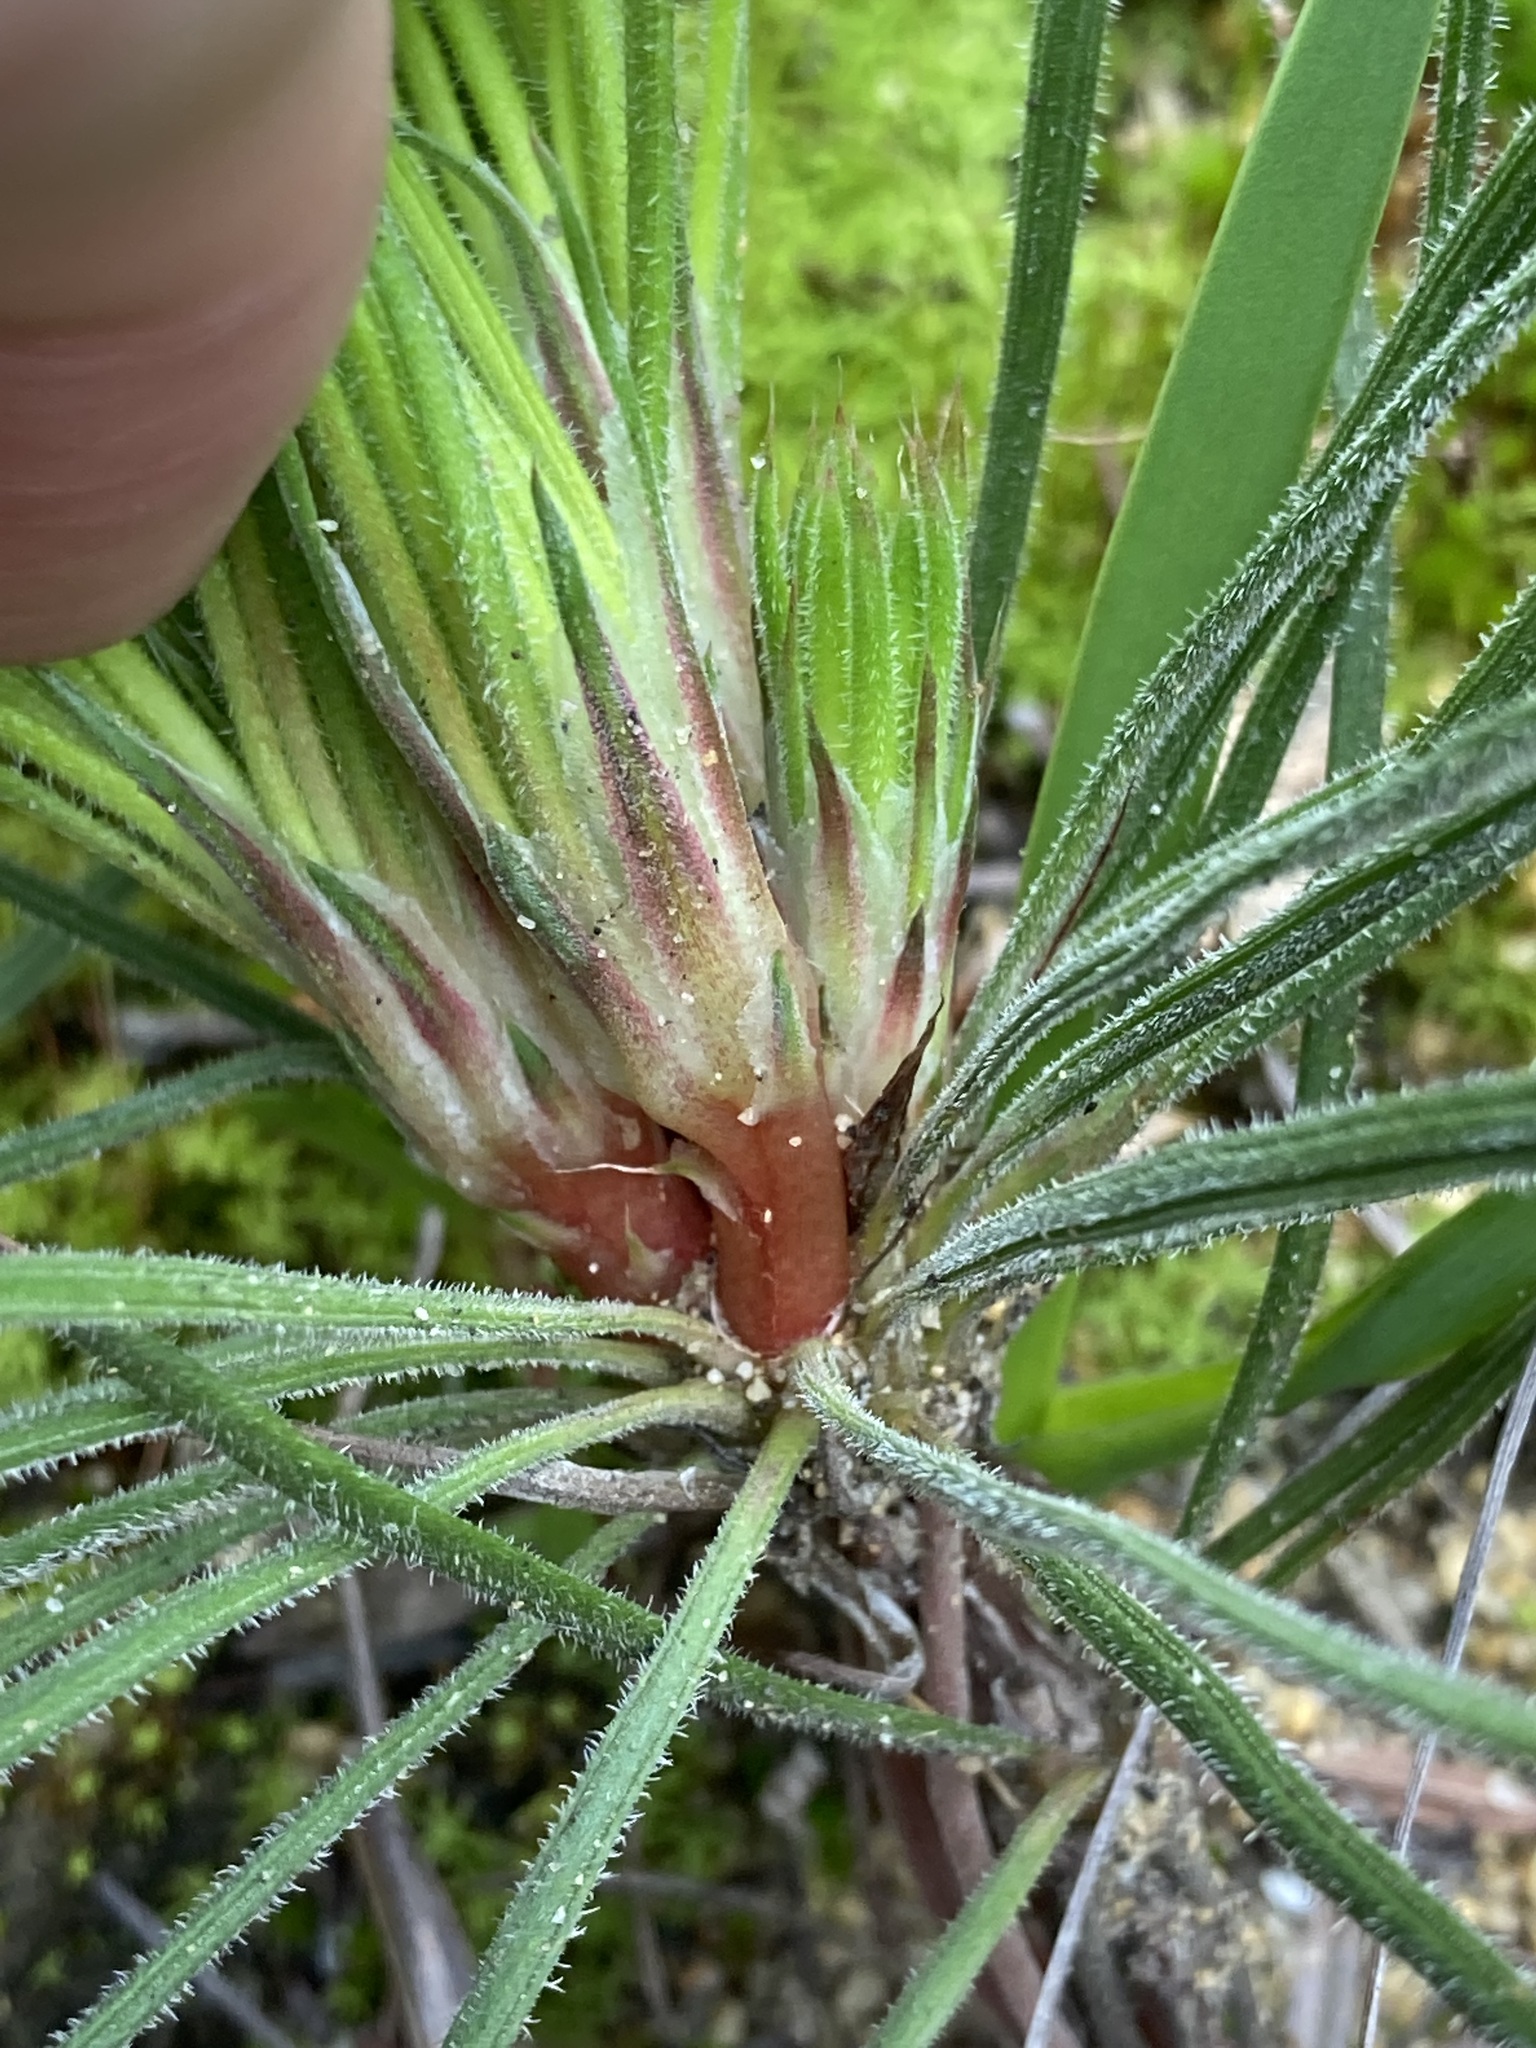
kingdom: Plantae
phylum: Tracheophyta
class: Magnoliopsida
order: Asterales
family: Stylidiaceae
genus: Stylidium
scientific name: Stylidium crossocephalum
